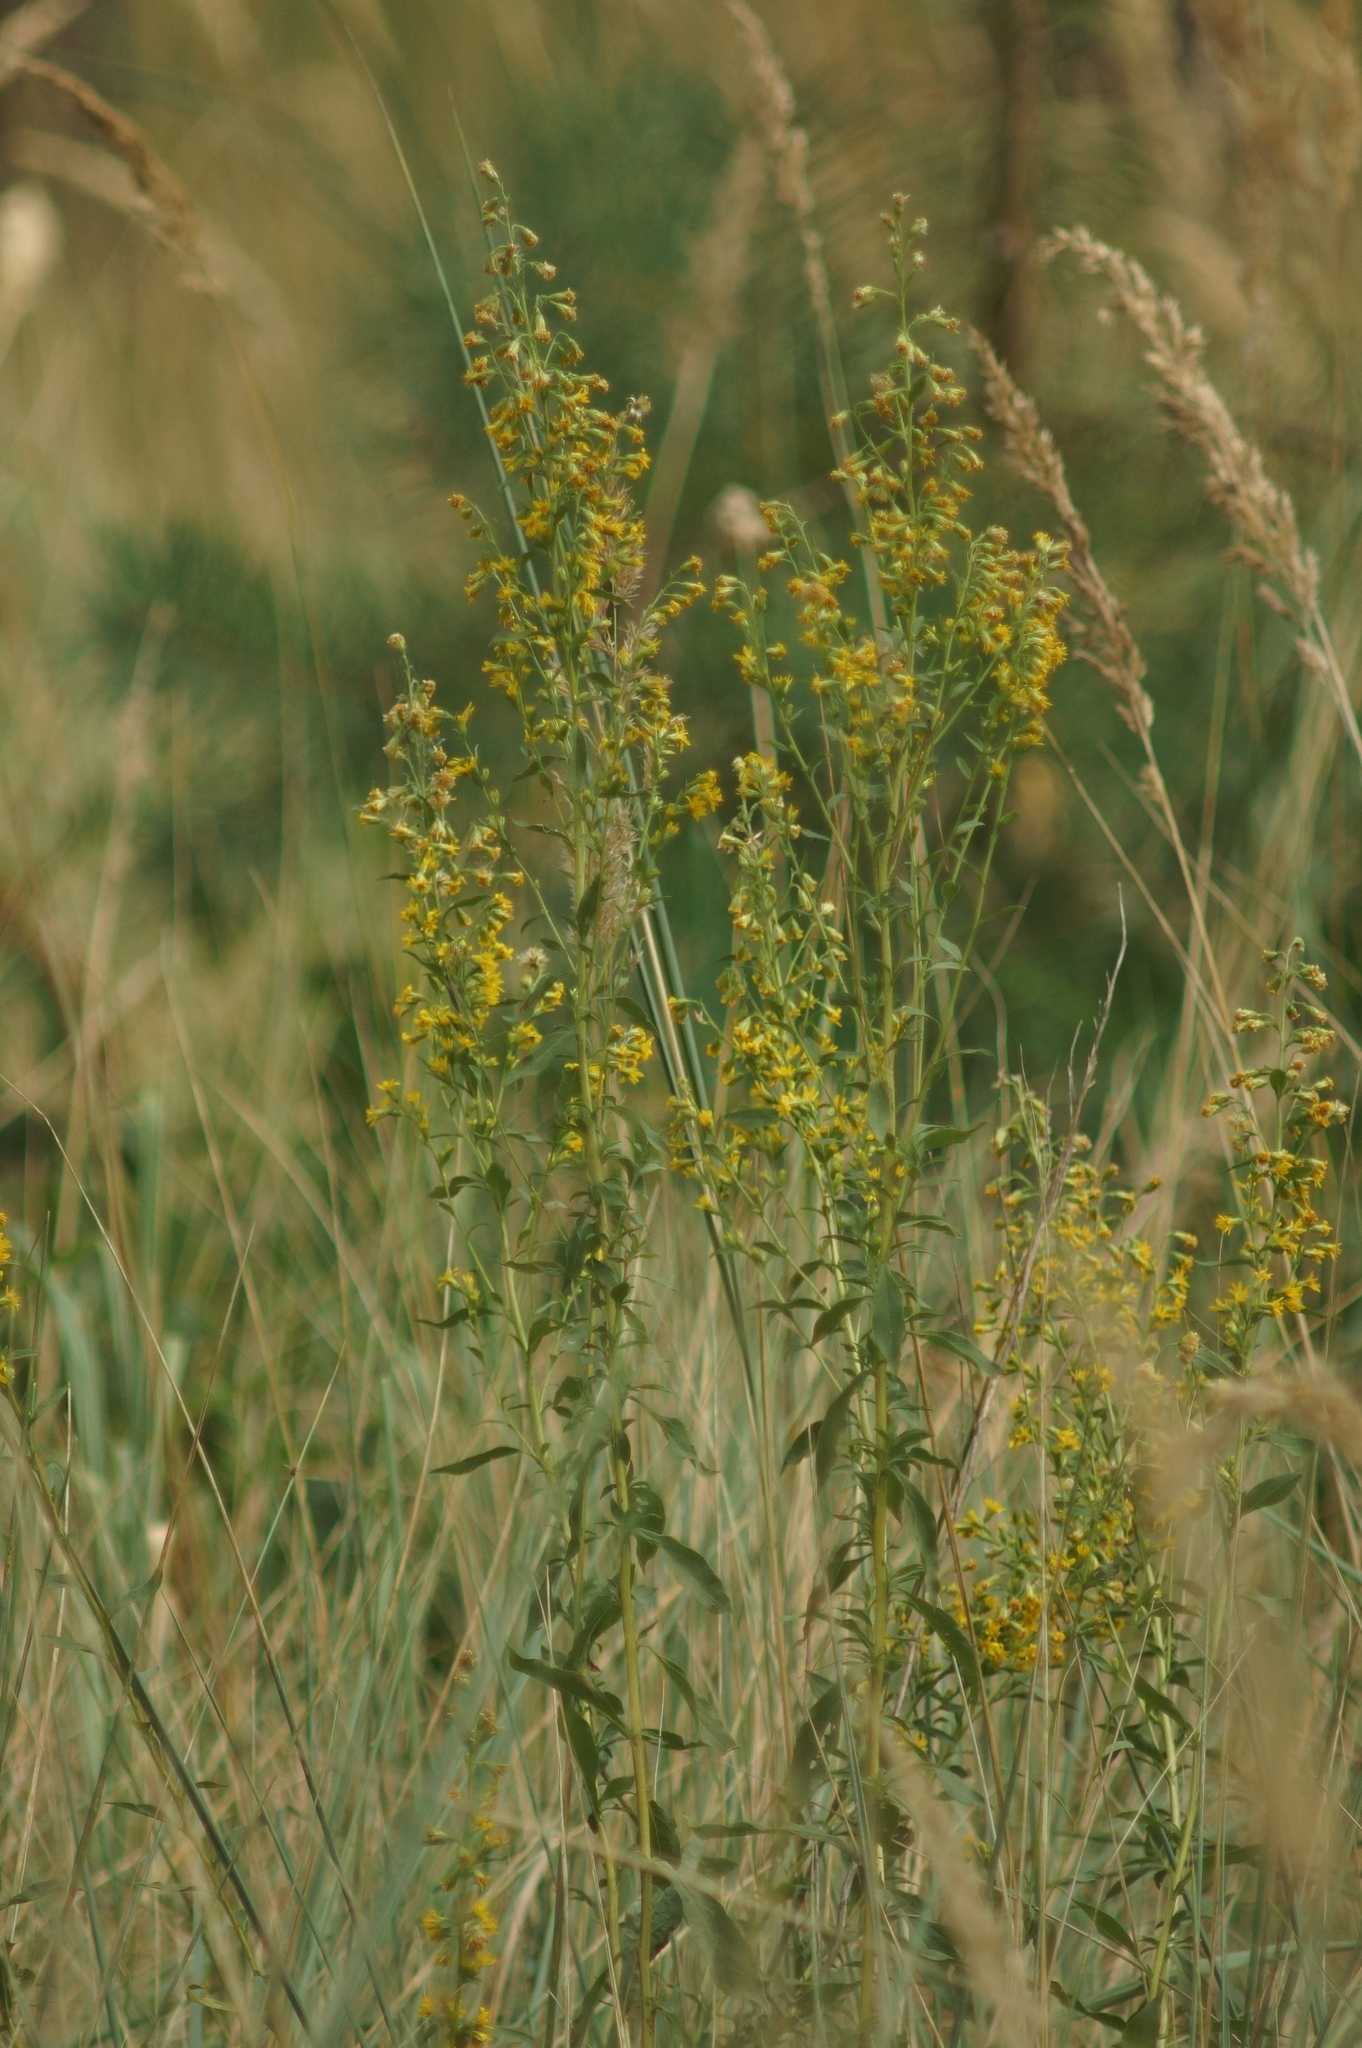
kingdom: Plantae
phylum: Tracheophyta
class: Magnoliopsida
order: Asterales
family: Asteraceae
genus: Solidago
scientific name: Solidago virgaurea
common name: Goldenrod
